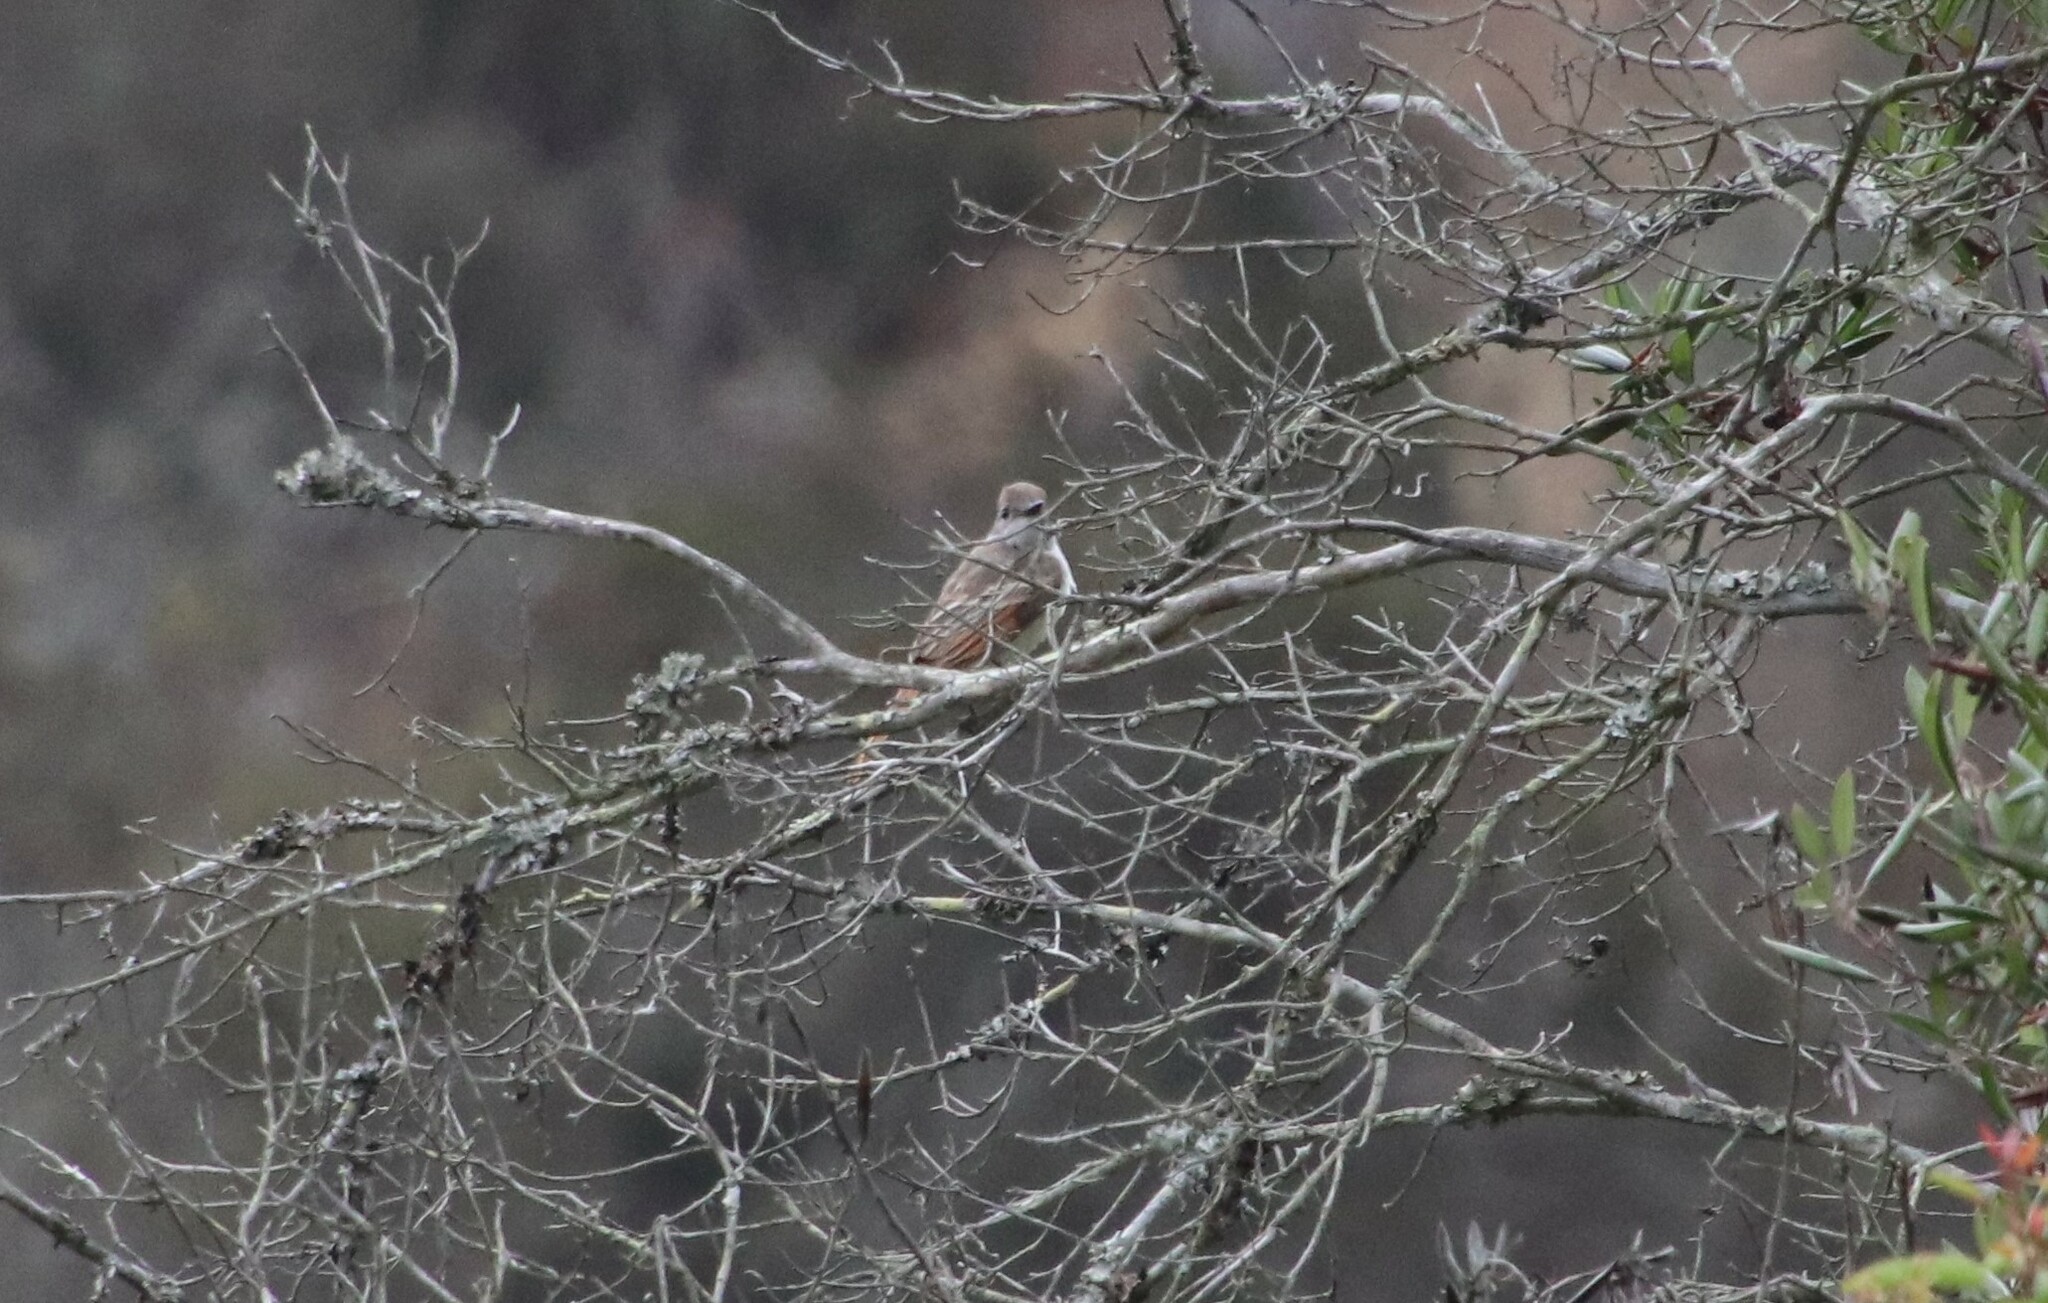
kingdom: Animalia
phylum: Chordata
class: Aves
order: Passeriformes
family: Tyrannidae
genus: Myiarchus
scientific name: Myiarchus cinerascens
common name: Ash-throated flycatcher
